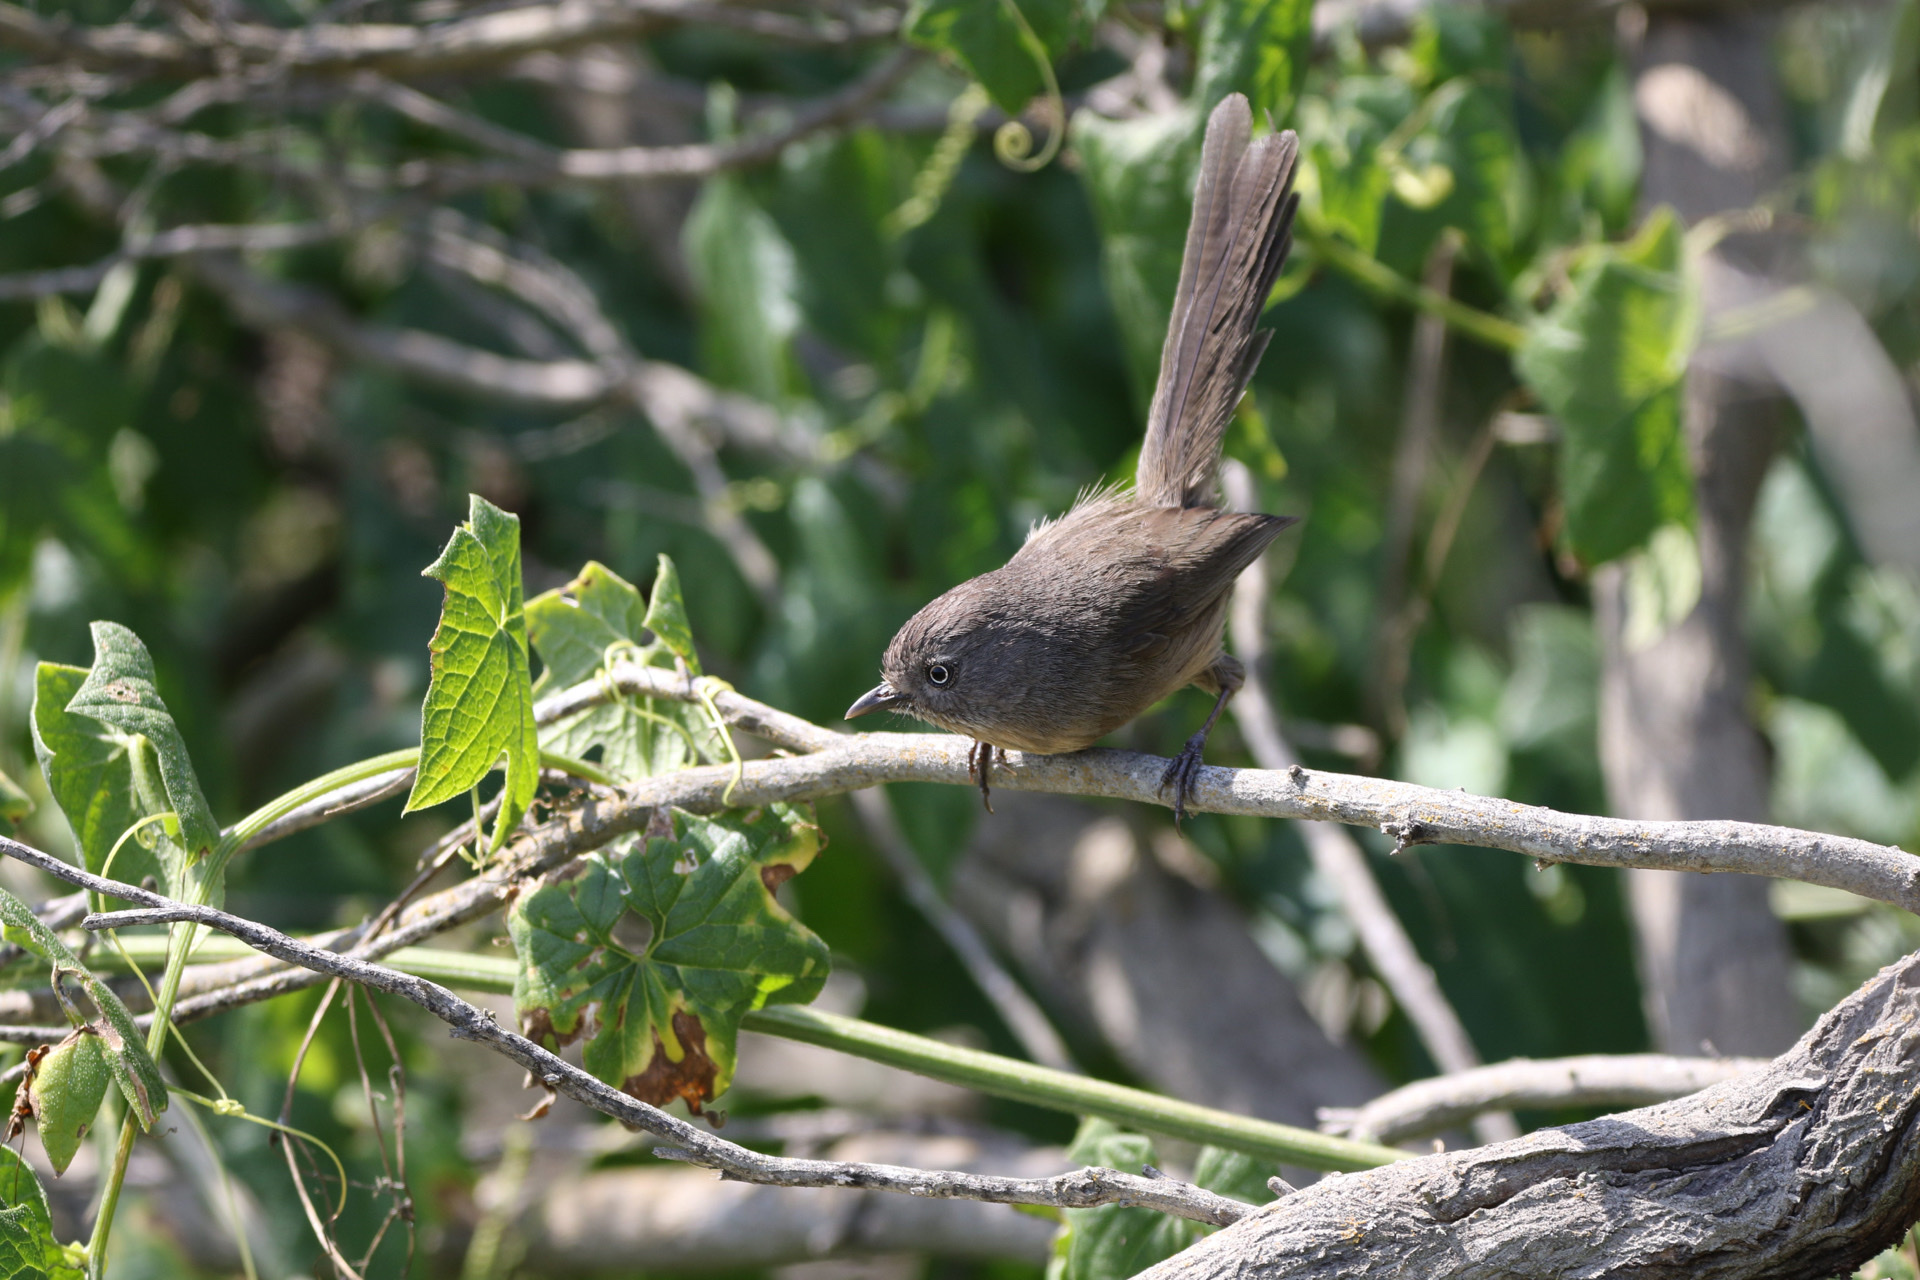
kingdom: Animalia
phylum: Chordata
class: Aves
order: Passeriformes
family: Sylviidae
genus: Chamaea
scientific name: Chamaea fasciata
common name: Wrentit
